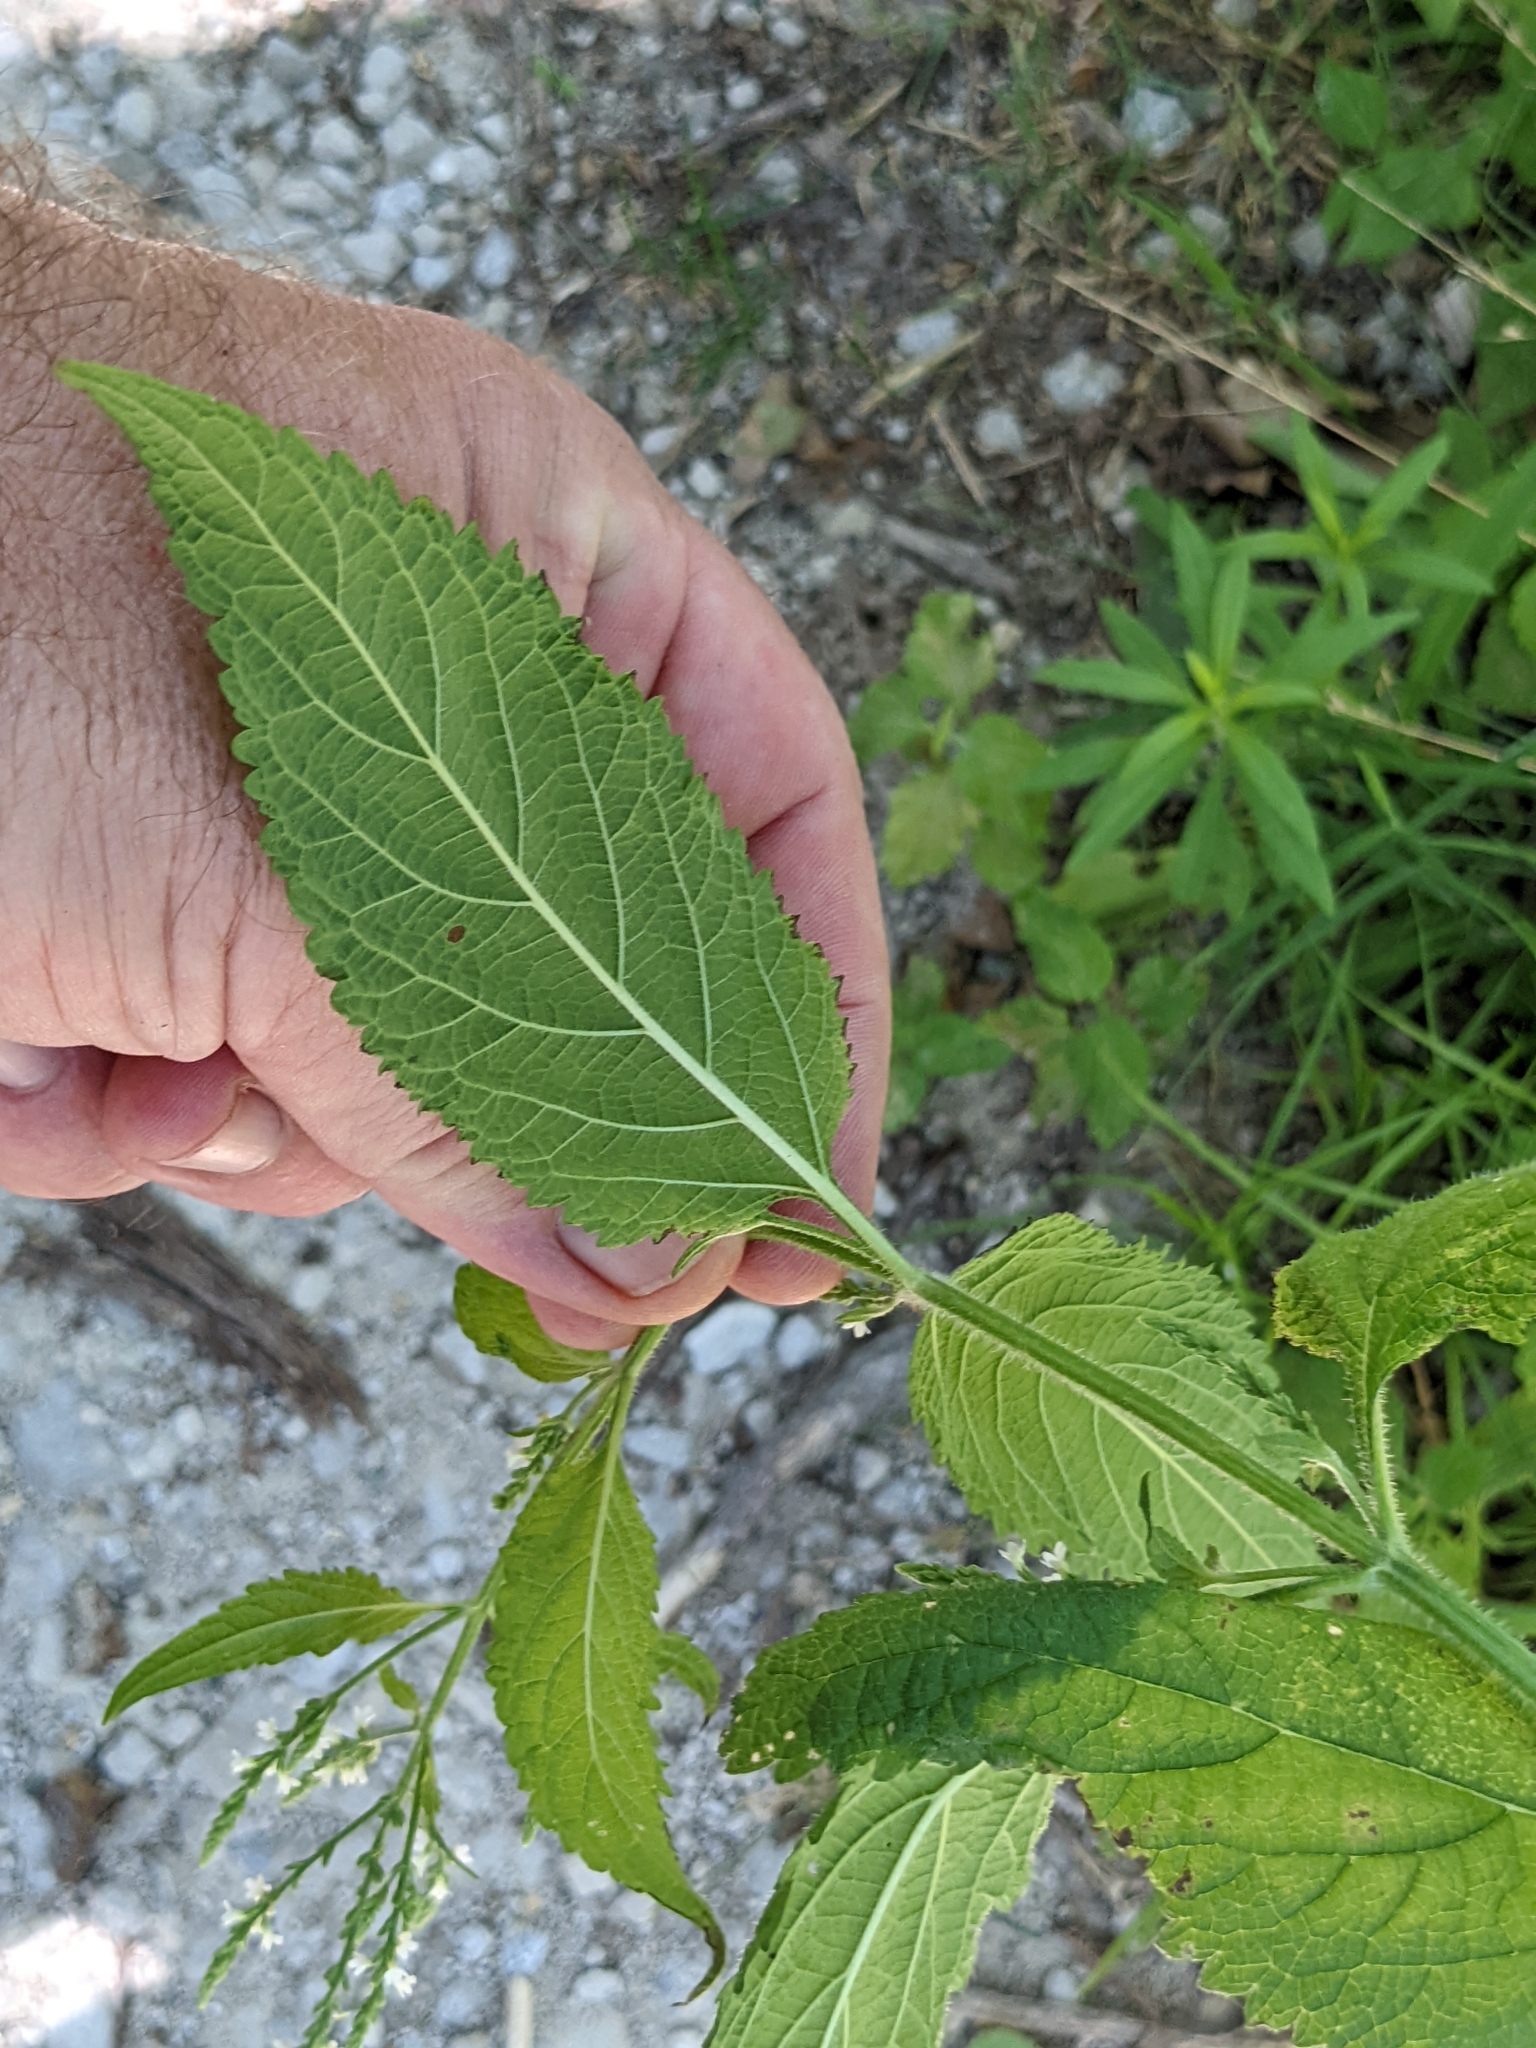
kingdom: Plantae
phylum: Tracheophyta
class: Magnoliopsida
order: Lamiales
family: Verbenaceae
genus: Verbena
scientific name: Verbena urticifolia
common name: Nettle-leaved vervain
